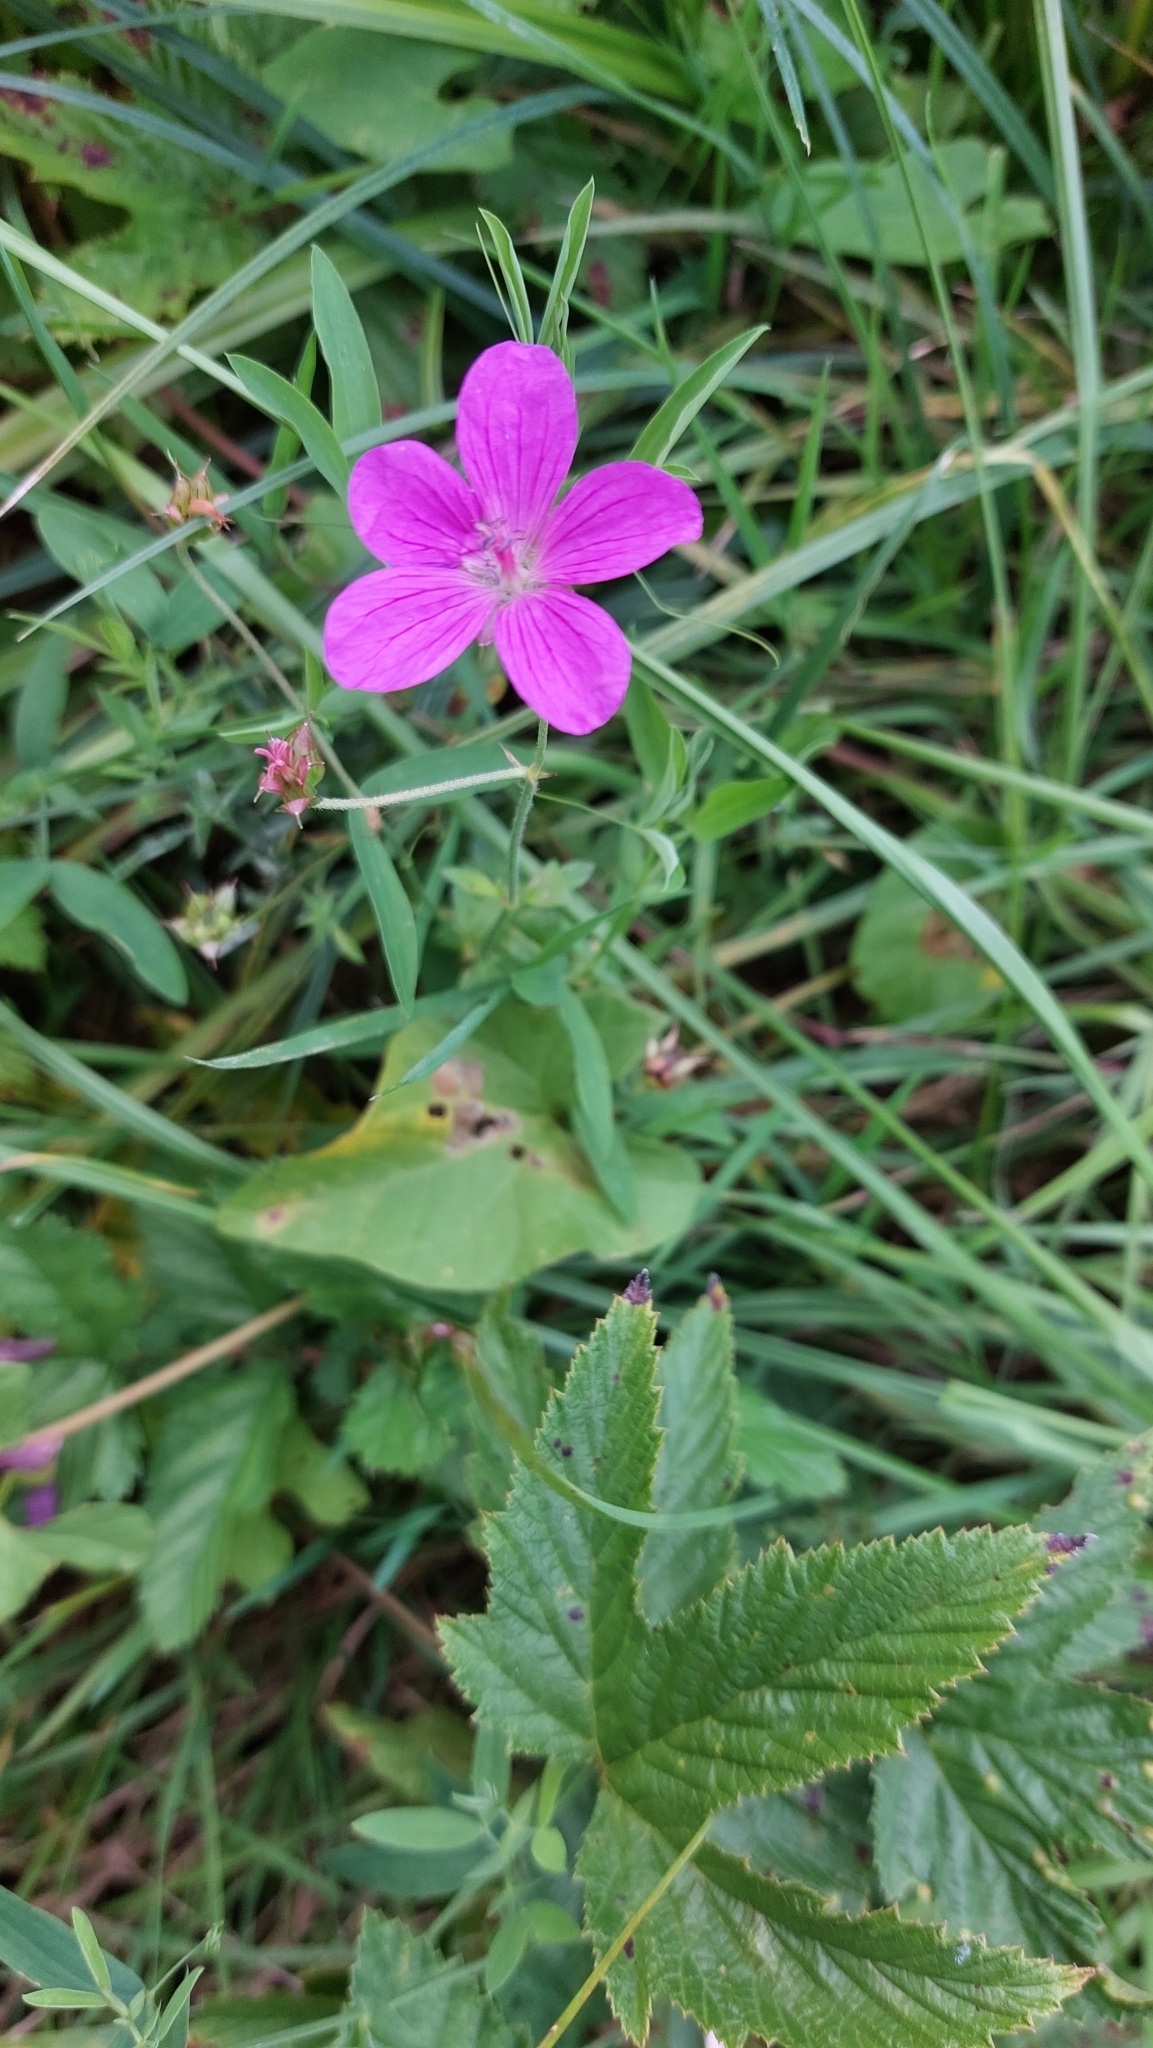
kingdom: Plantae
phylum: Tracheophyta
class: Magnoliopsida
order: Geraniales
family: Geraniaceae
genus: Geranium
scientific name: Geranium palustre
